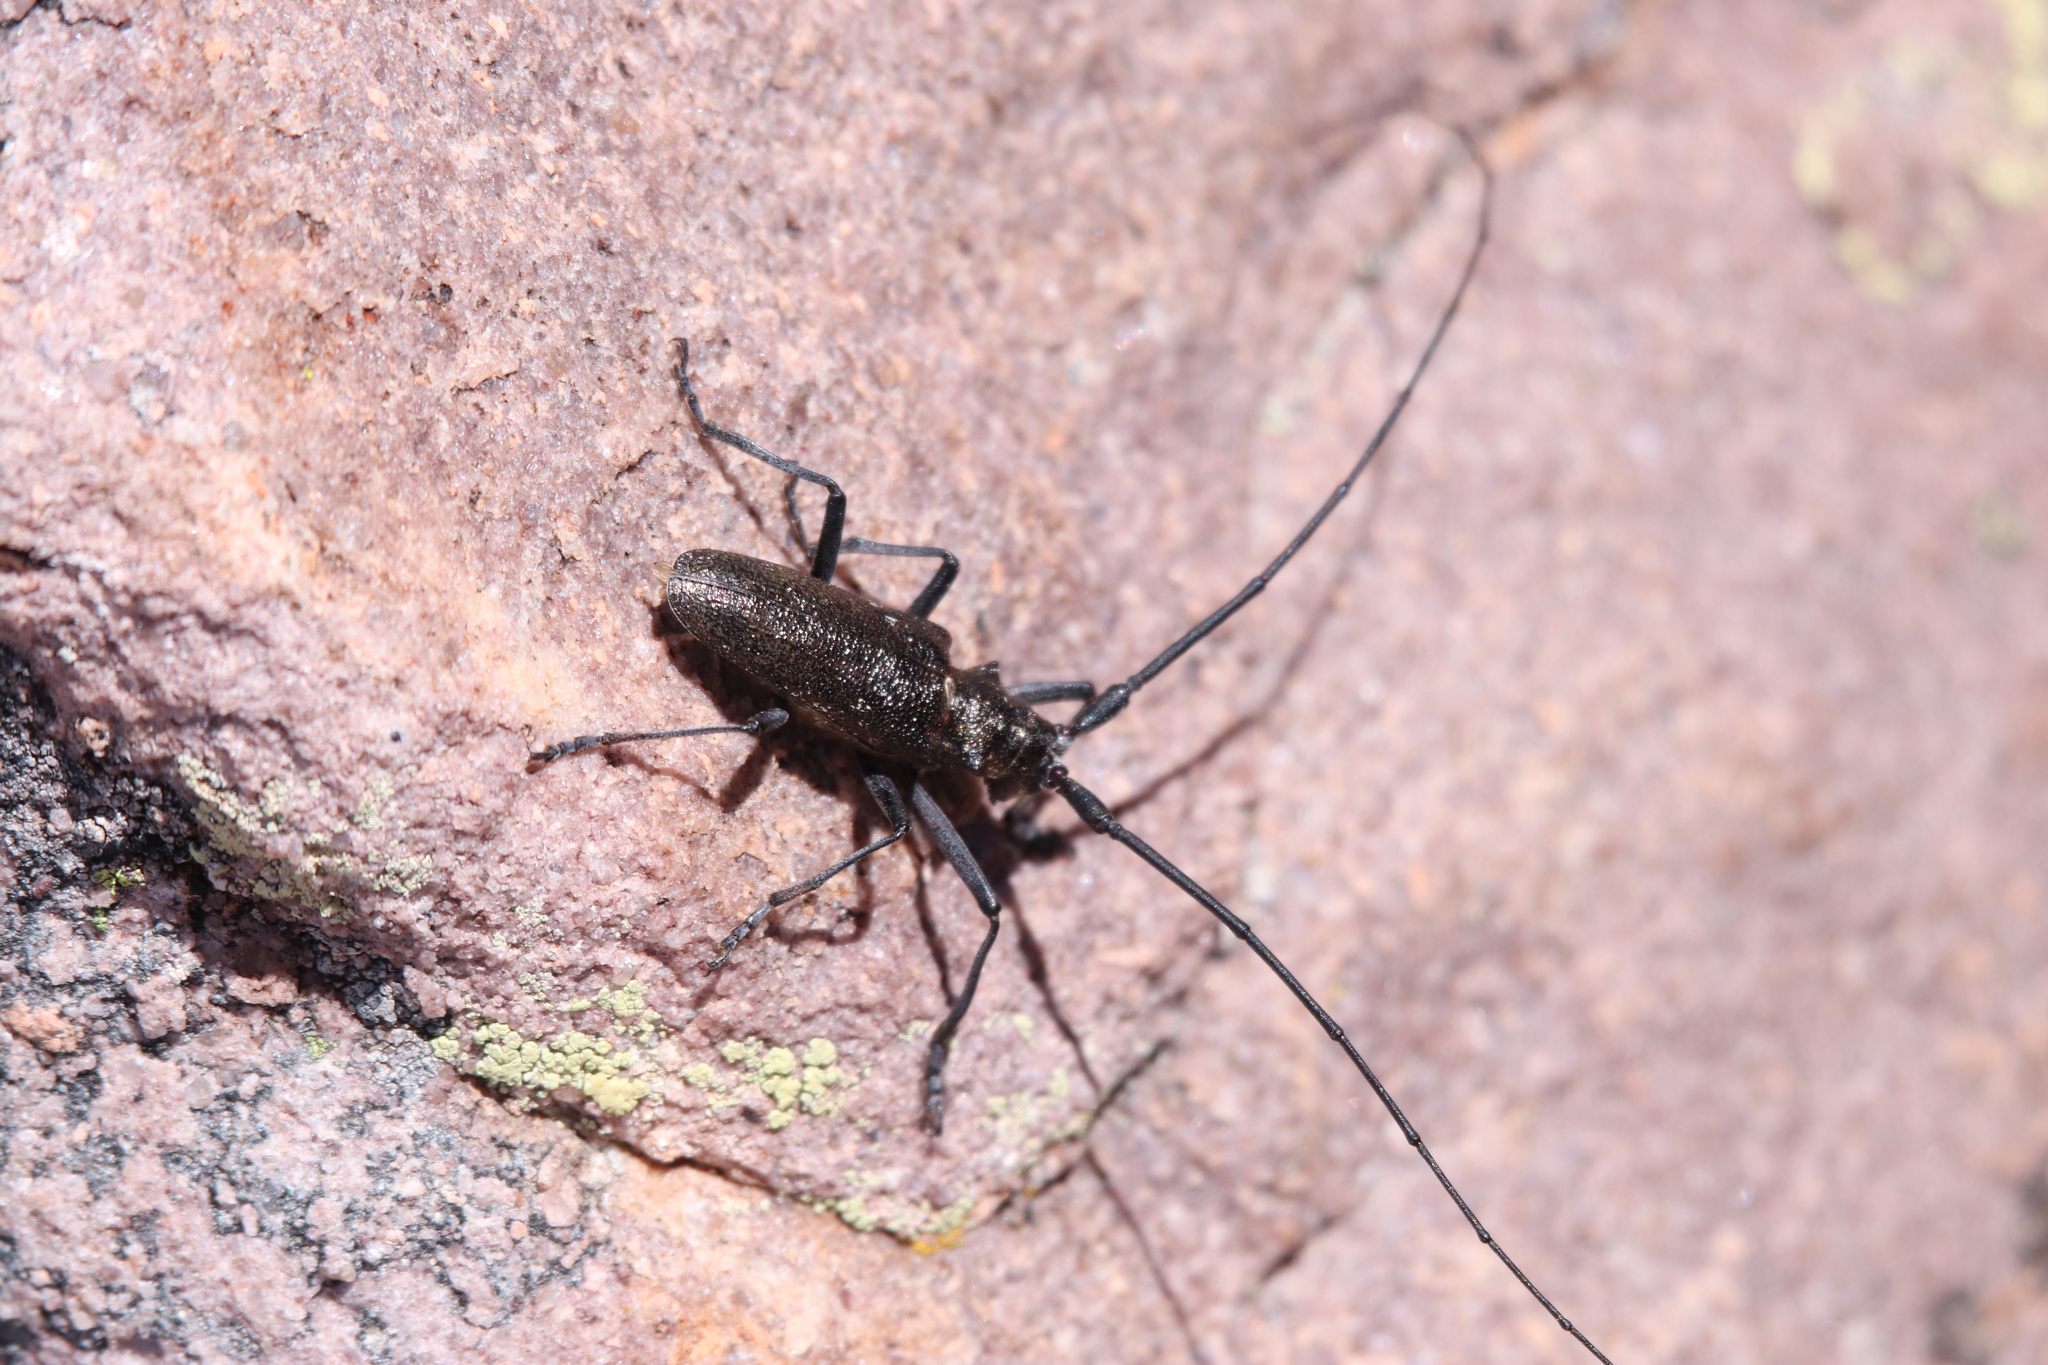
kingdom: Animalia
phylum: Arthropoda
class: Insecta
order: Coleoptera
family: Cerambycidae
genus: Monochamus
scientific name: Monochamus scutellatus
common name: White-spotted sawyer beetle
